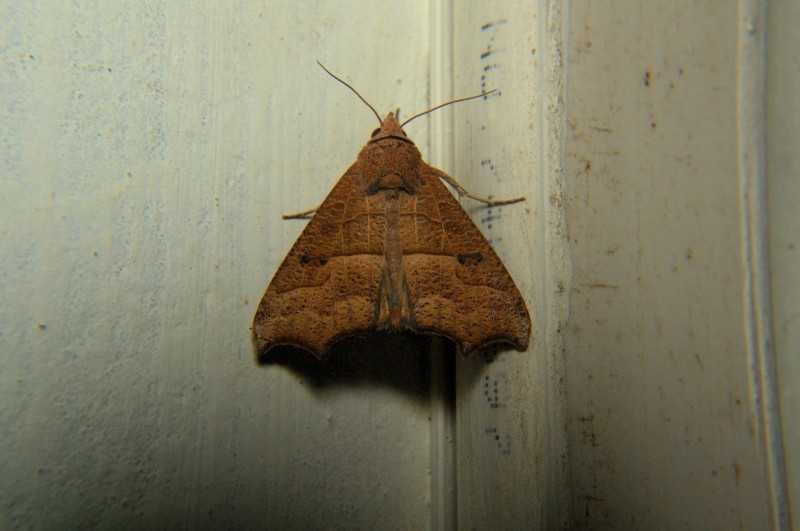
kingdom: Animalia
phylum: Arthropoda
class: Insecta
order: Lepidoptera
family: Erebidae
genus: Gonitis
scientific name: Gonitis mesogona
